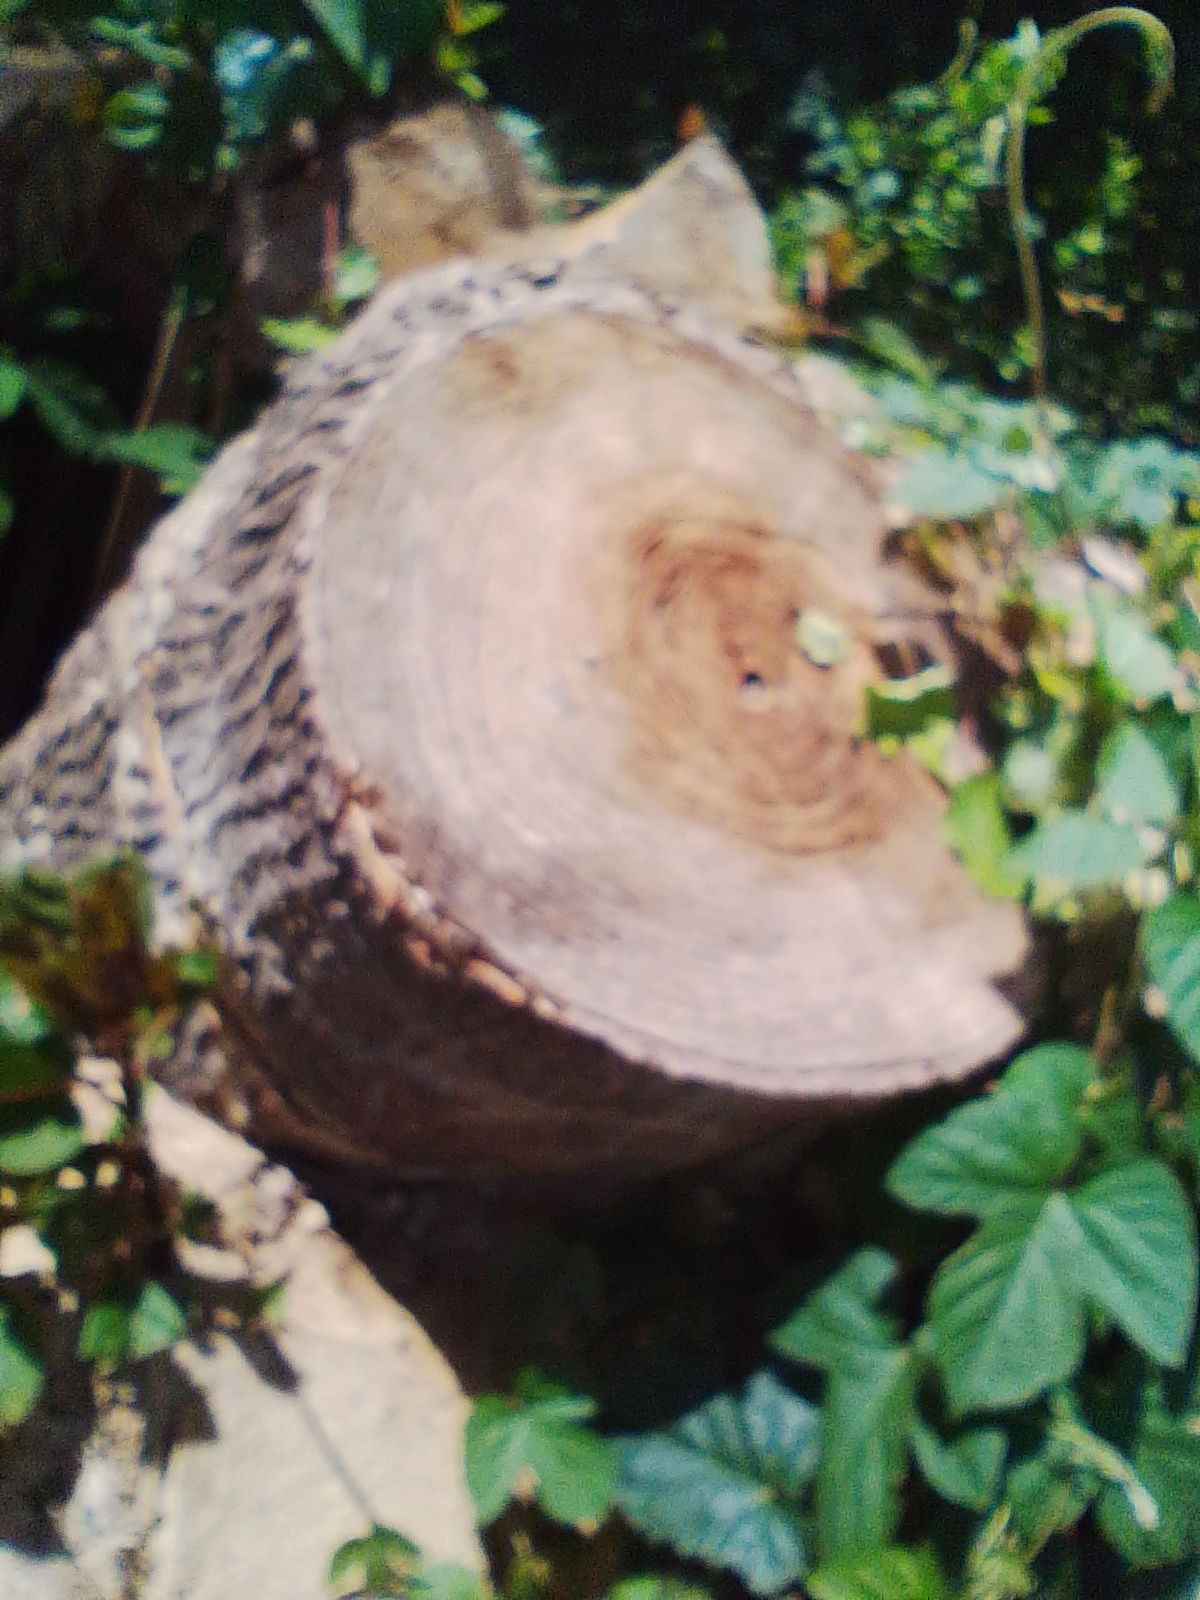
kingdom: Plantae
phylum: Tracheophyta
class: Magnoliopsida
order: Caryophyllales
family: Phytolaccaceae
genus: Phytolacca
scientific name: Phytolacca dioica
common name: Pokeweed
